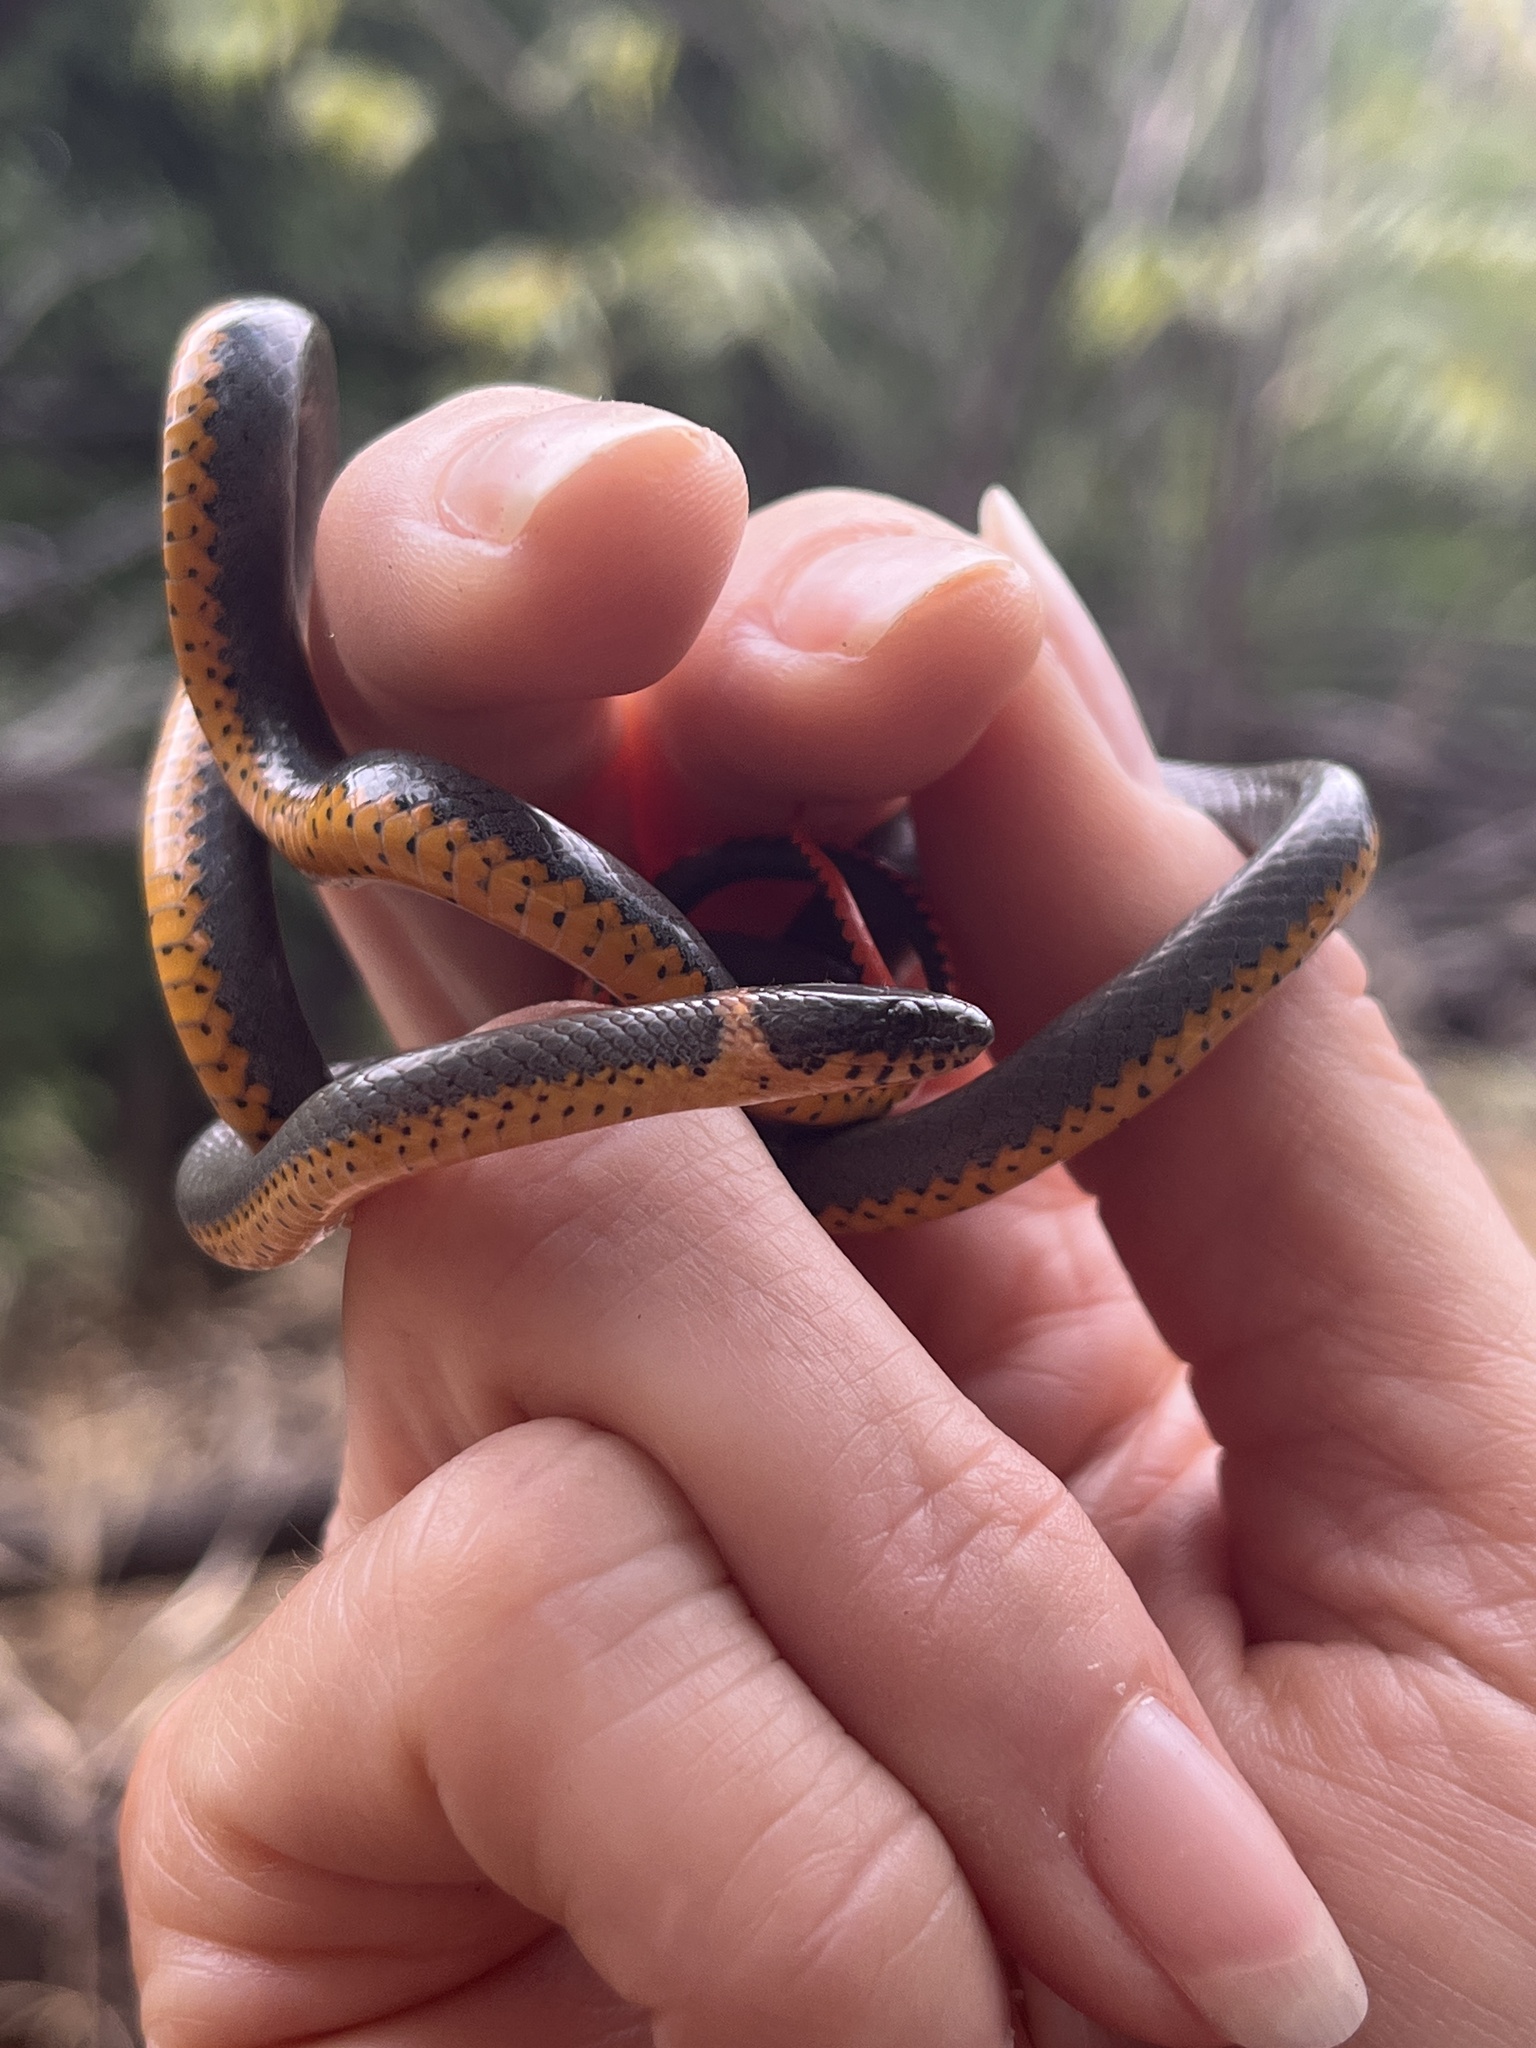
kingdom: Animalia
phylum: Chordata
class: Squamata
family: Colubridae
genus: Diadophis
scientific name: Diadophis punctatus
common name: Ringneck snake
